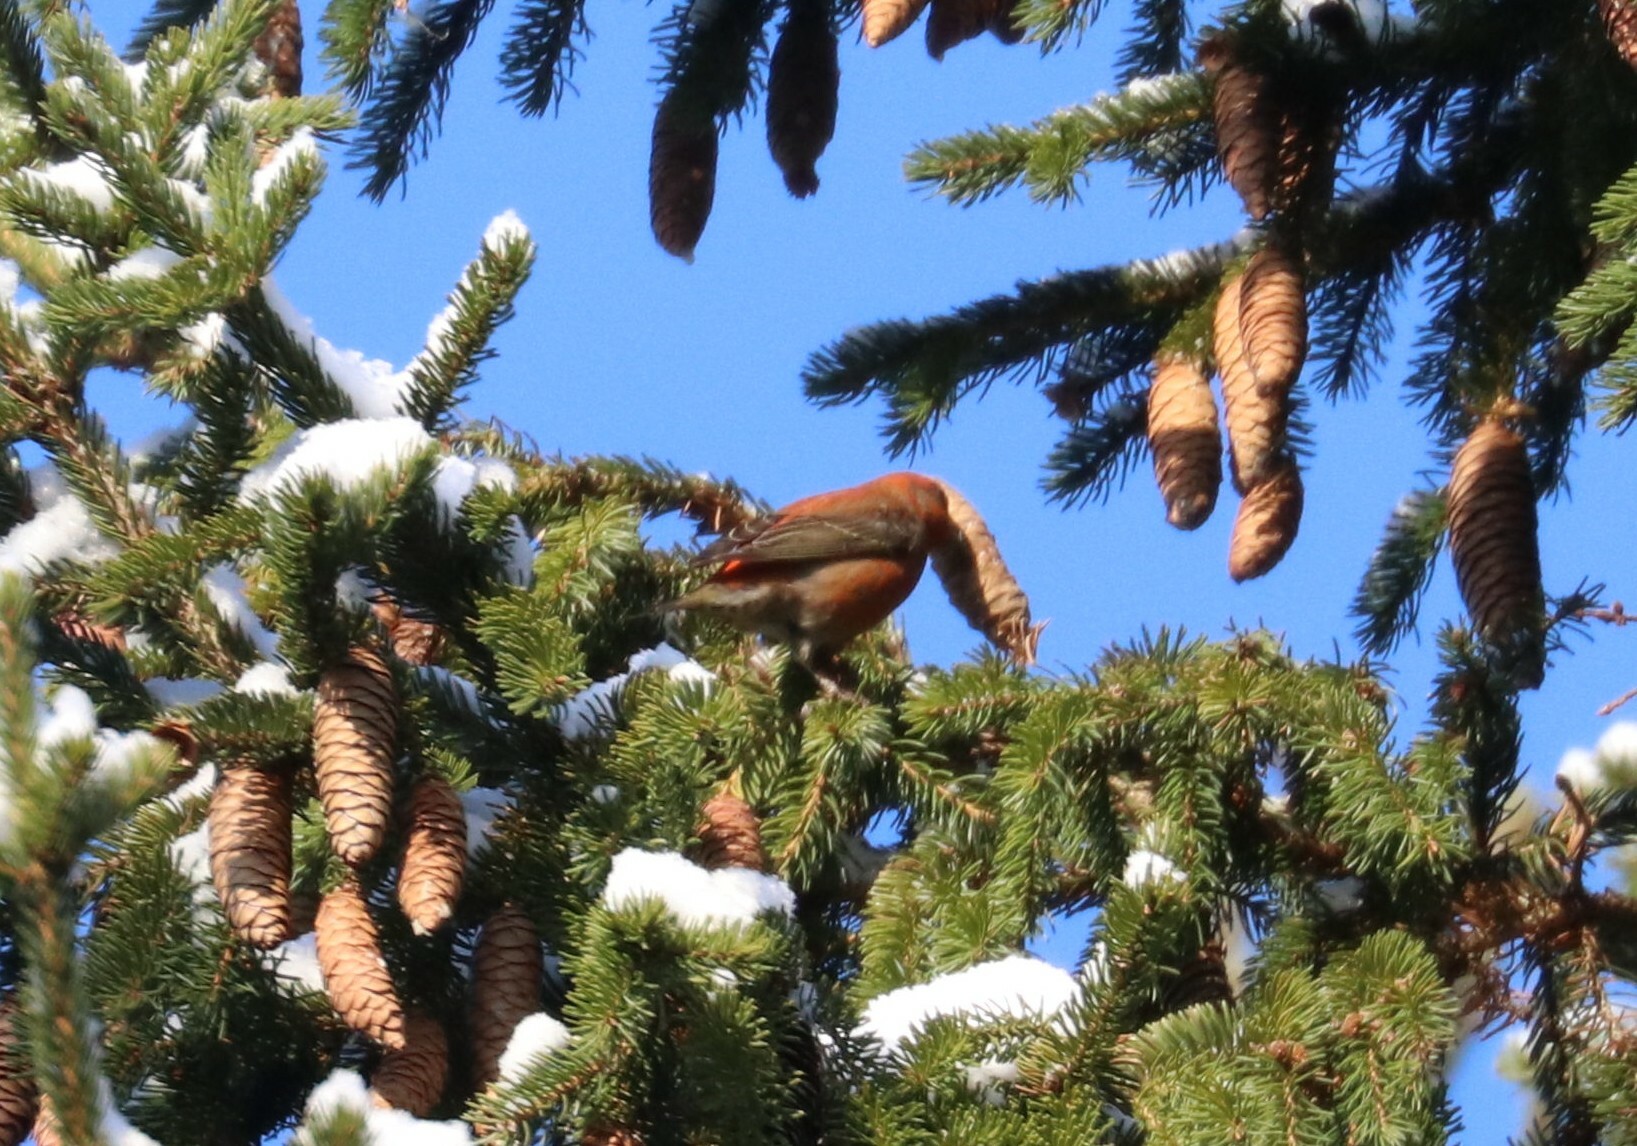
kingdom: Animalia
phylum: Chordata
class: Aves
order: Passeriformes
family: Fringillidae
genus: Loxia
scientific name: Loxia curvirostra
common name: Red crossbill
